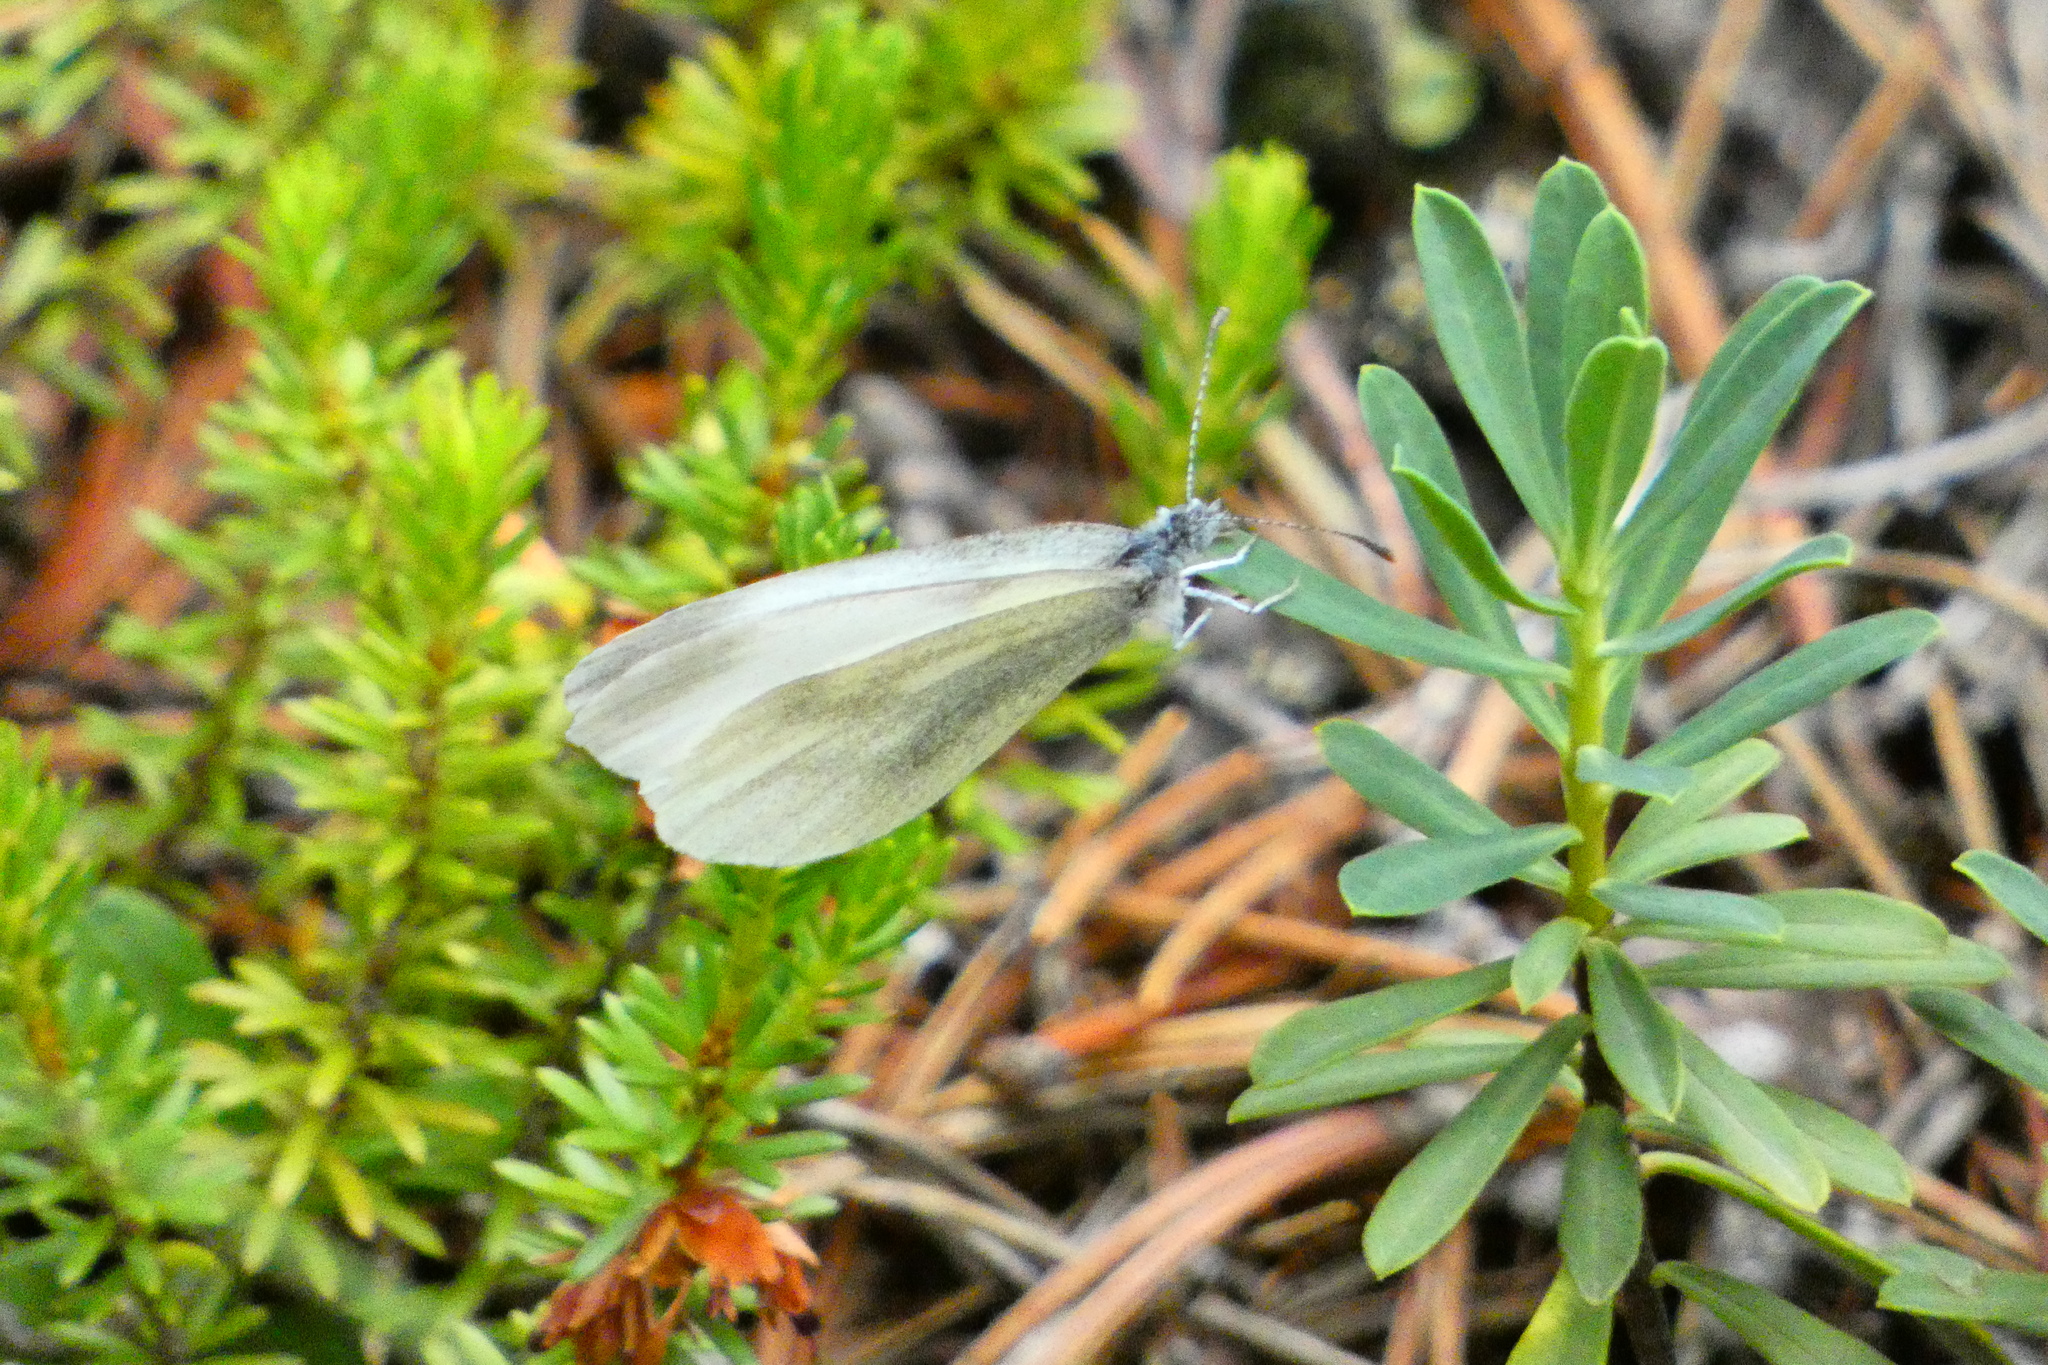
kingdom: Animalia
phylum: Arthropoda
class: Insecta
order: Lepidoptera
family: Pieridae
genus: Leptidea
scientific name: Leptidea sinapis
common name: Wood white
